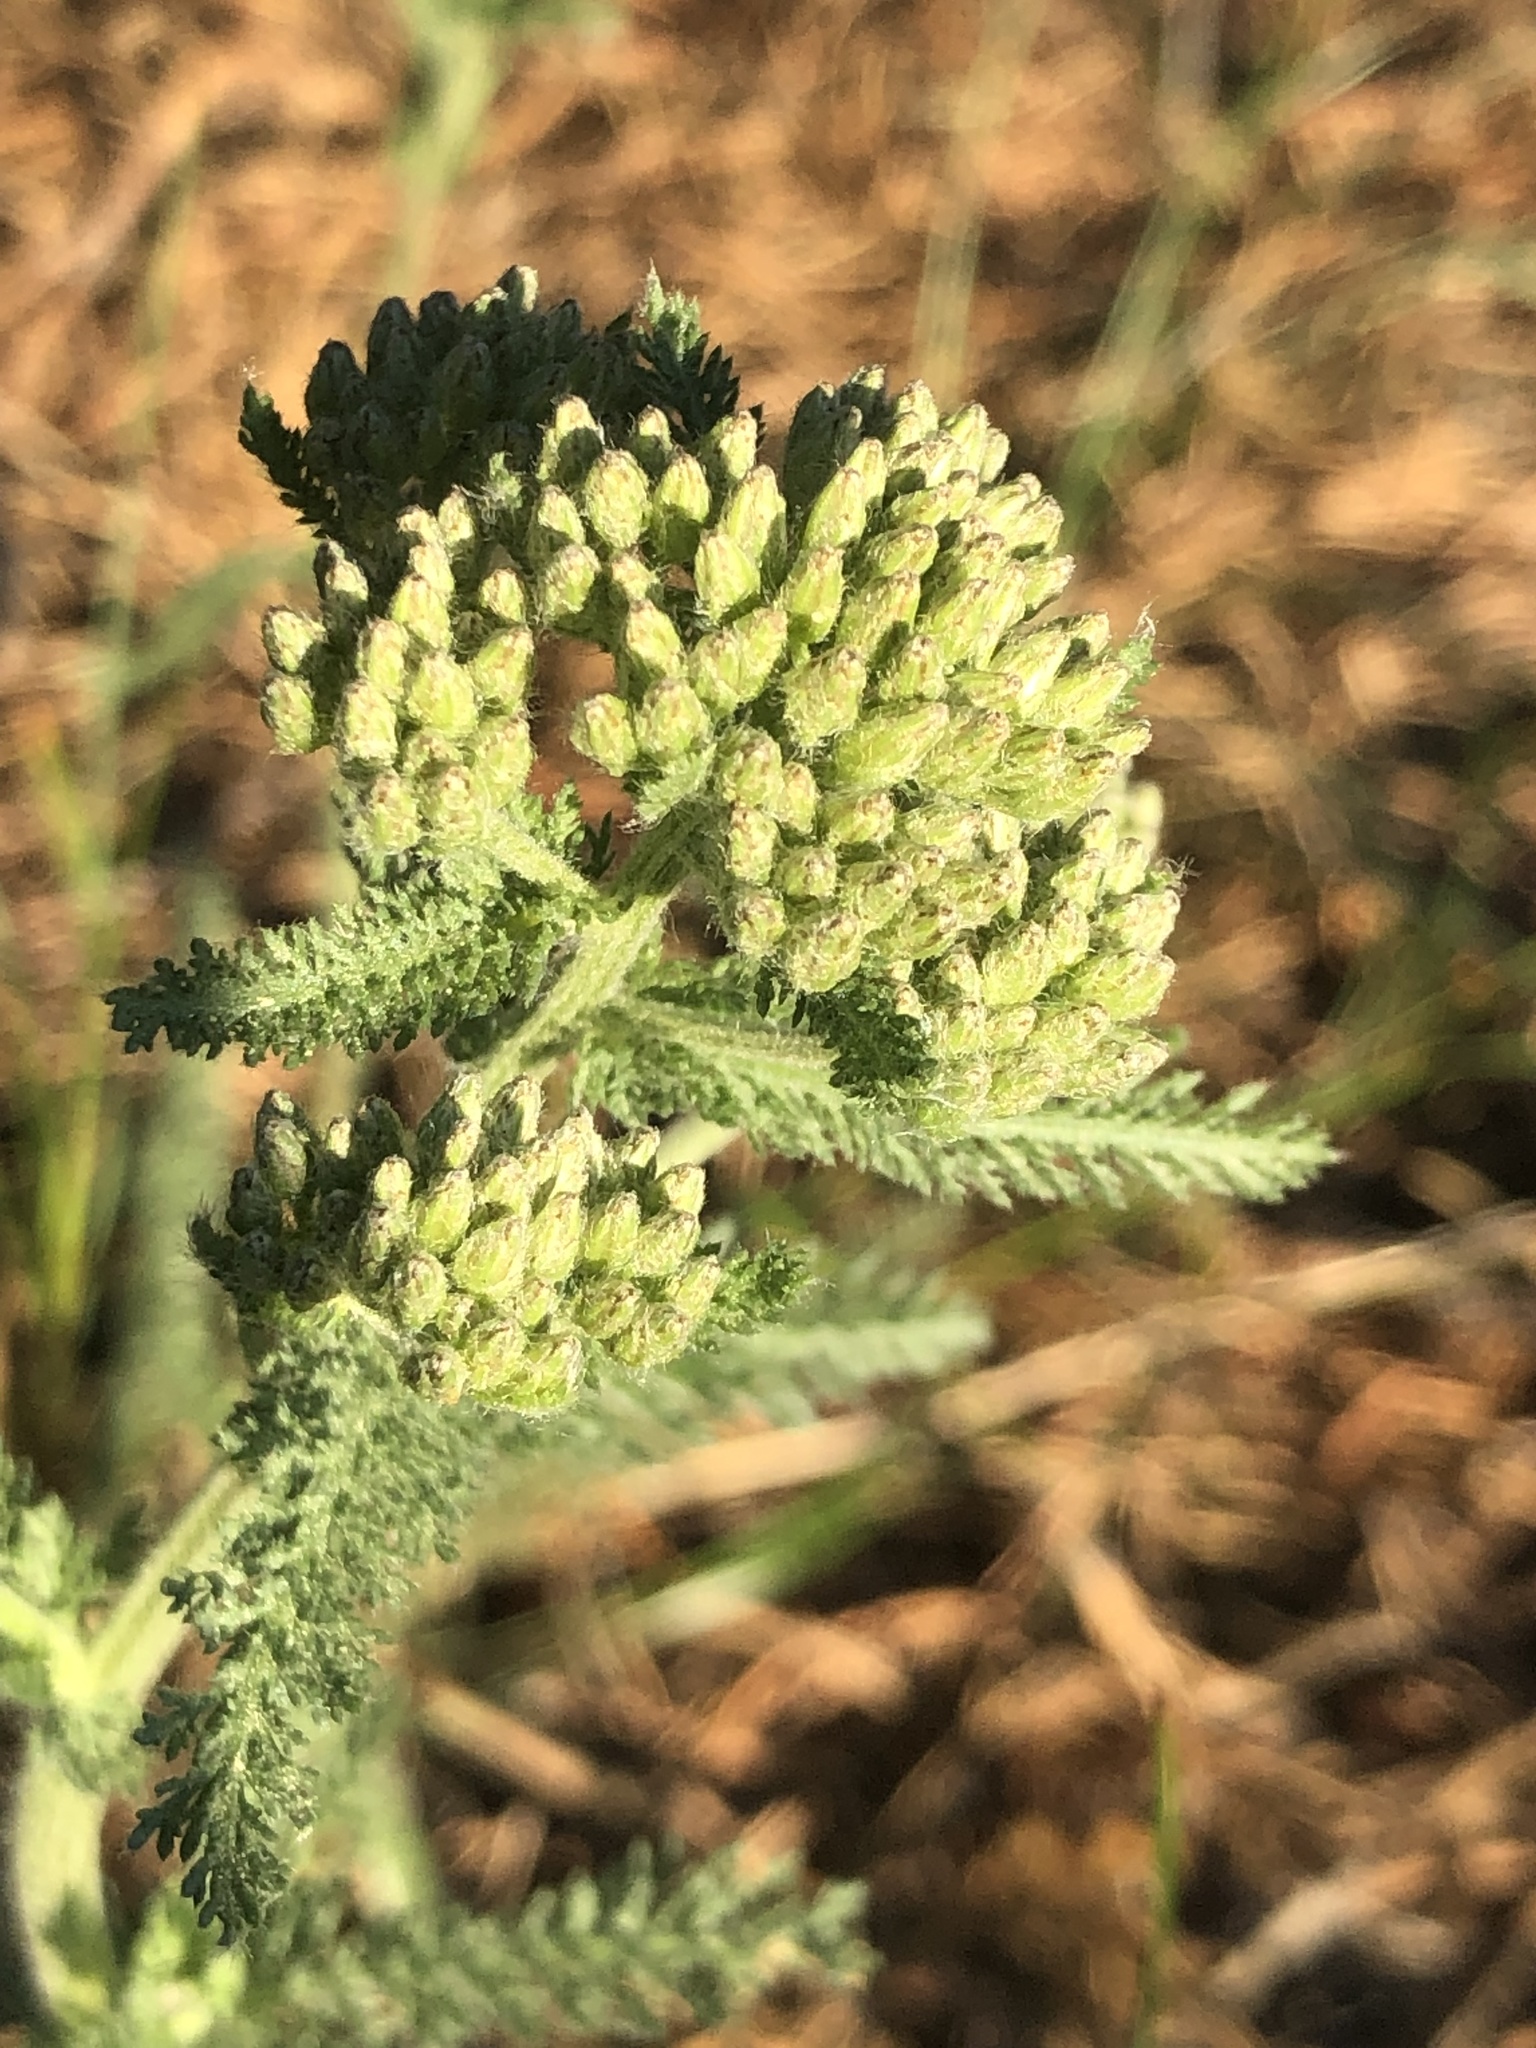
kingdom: Plantae
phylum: Tracheophyta
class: Magnoliopsida
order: Asterales
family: Asteraceae
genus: Achillea
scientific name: Achillea millefolium
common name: Yarrow
